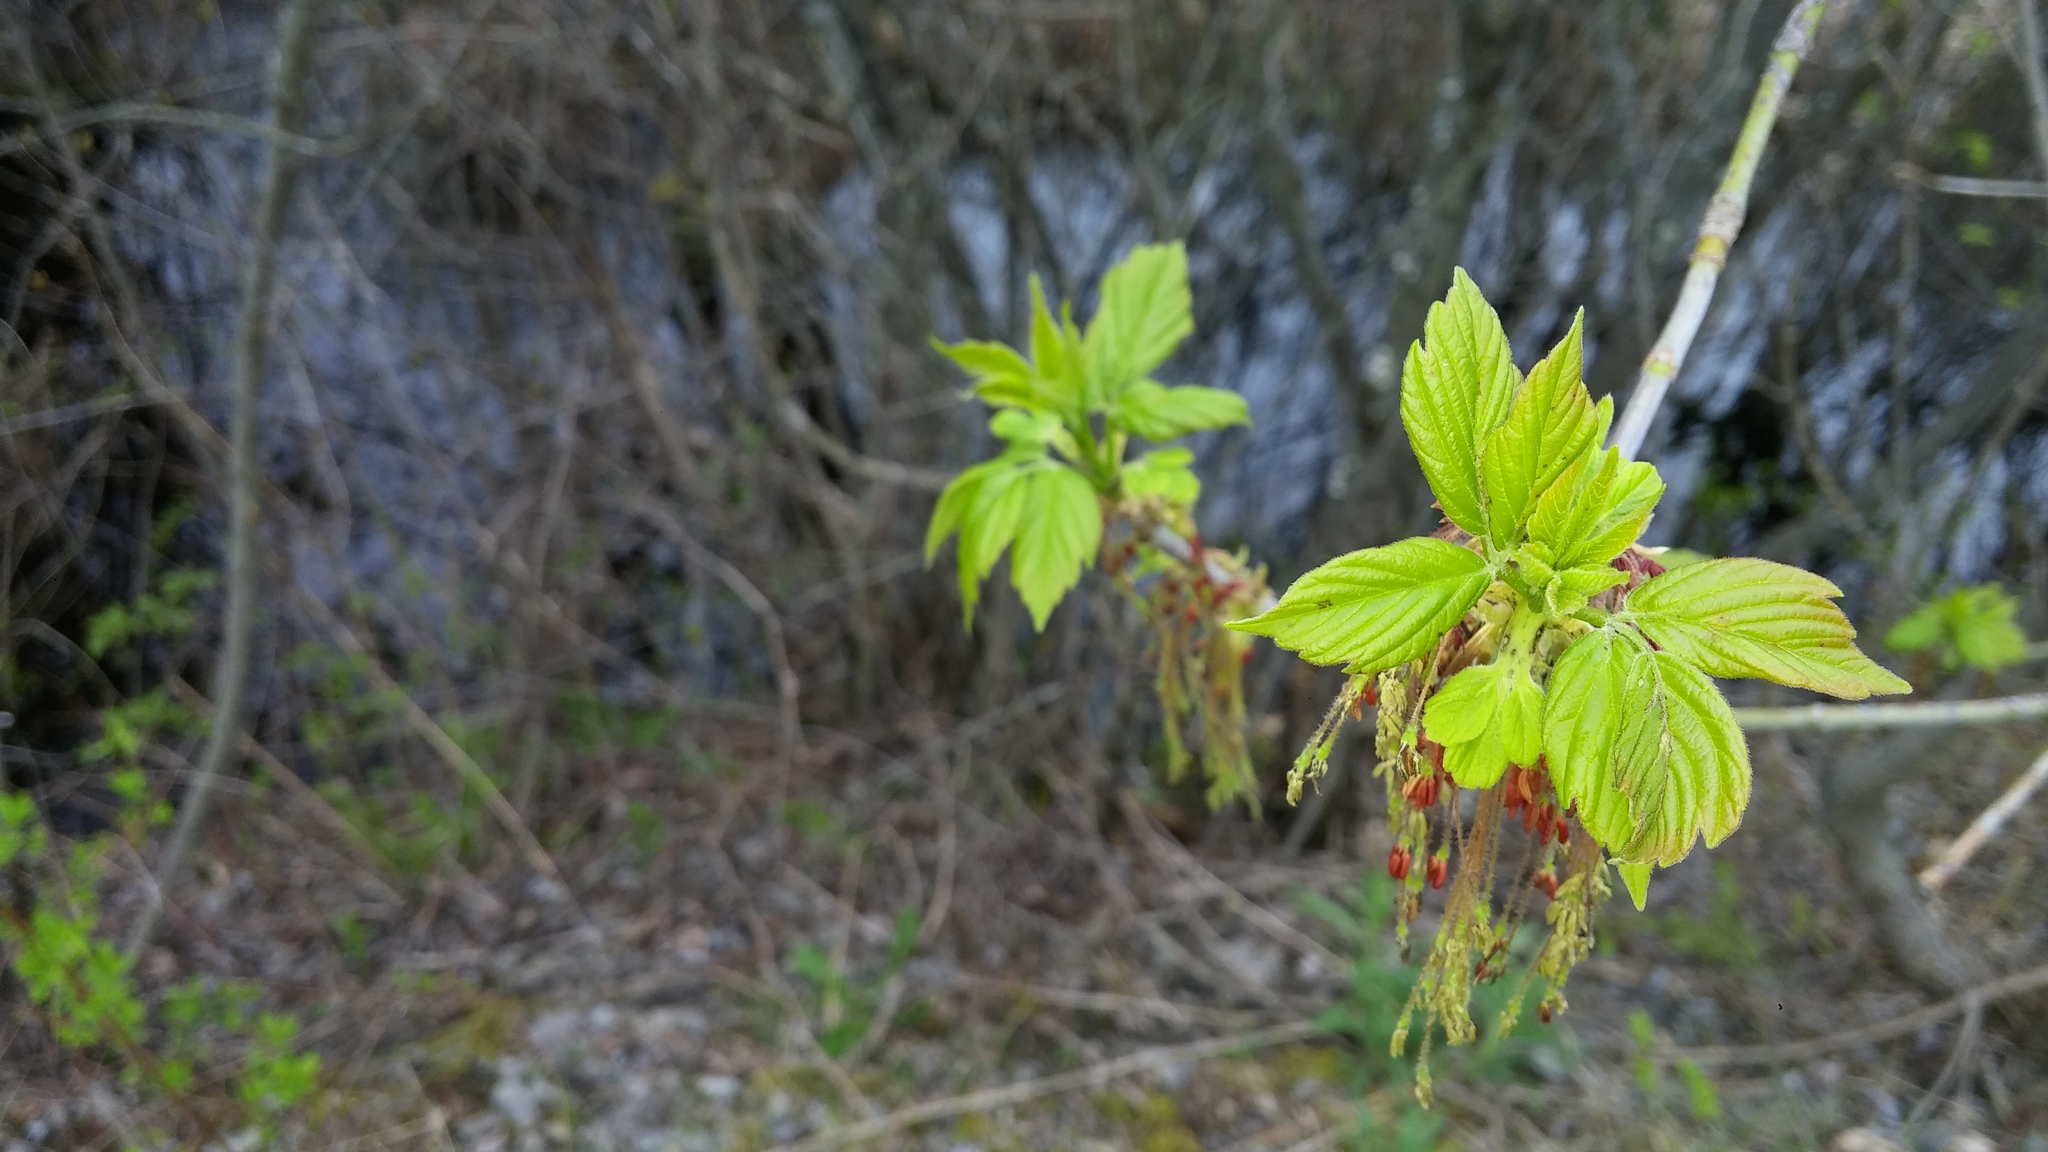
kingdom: Plantae
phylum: Tracheophyta
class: Magnoliopsida
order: Sapindales
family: Sapindaceae
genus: Acer
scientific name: Acer negundo
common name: Ashleaf maple
